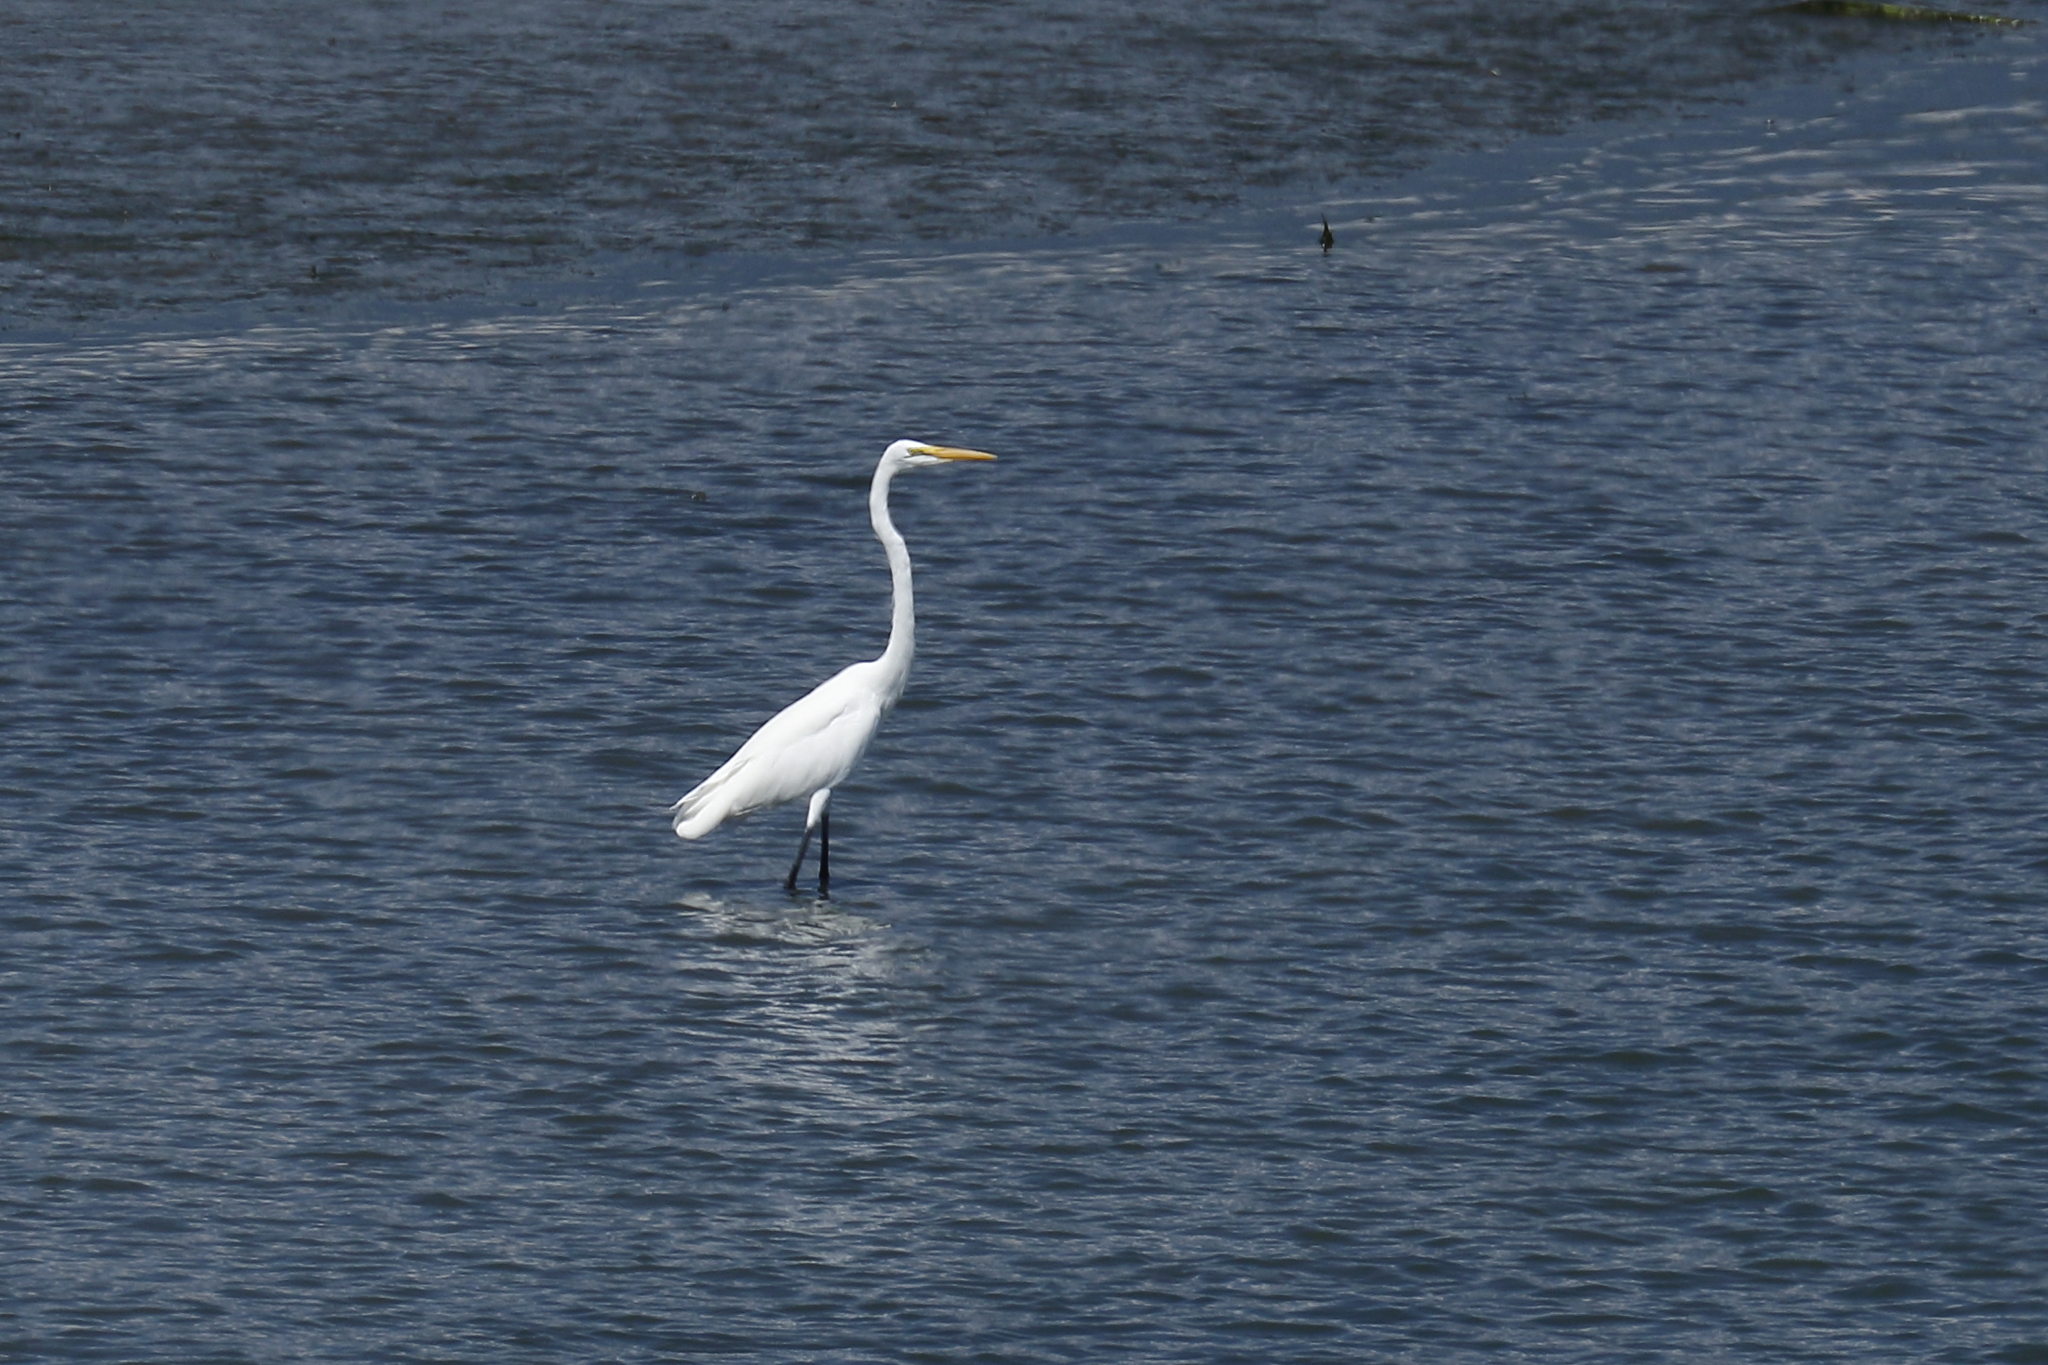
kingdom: Animalia
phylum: Chordata
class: Aves
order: Pelecaniformes
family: Ardeidae
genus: Ardea
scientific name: Ardea alba
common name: Great egret
